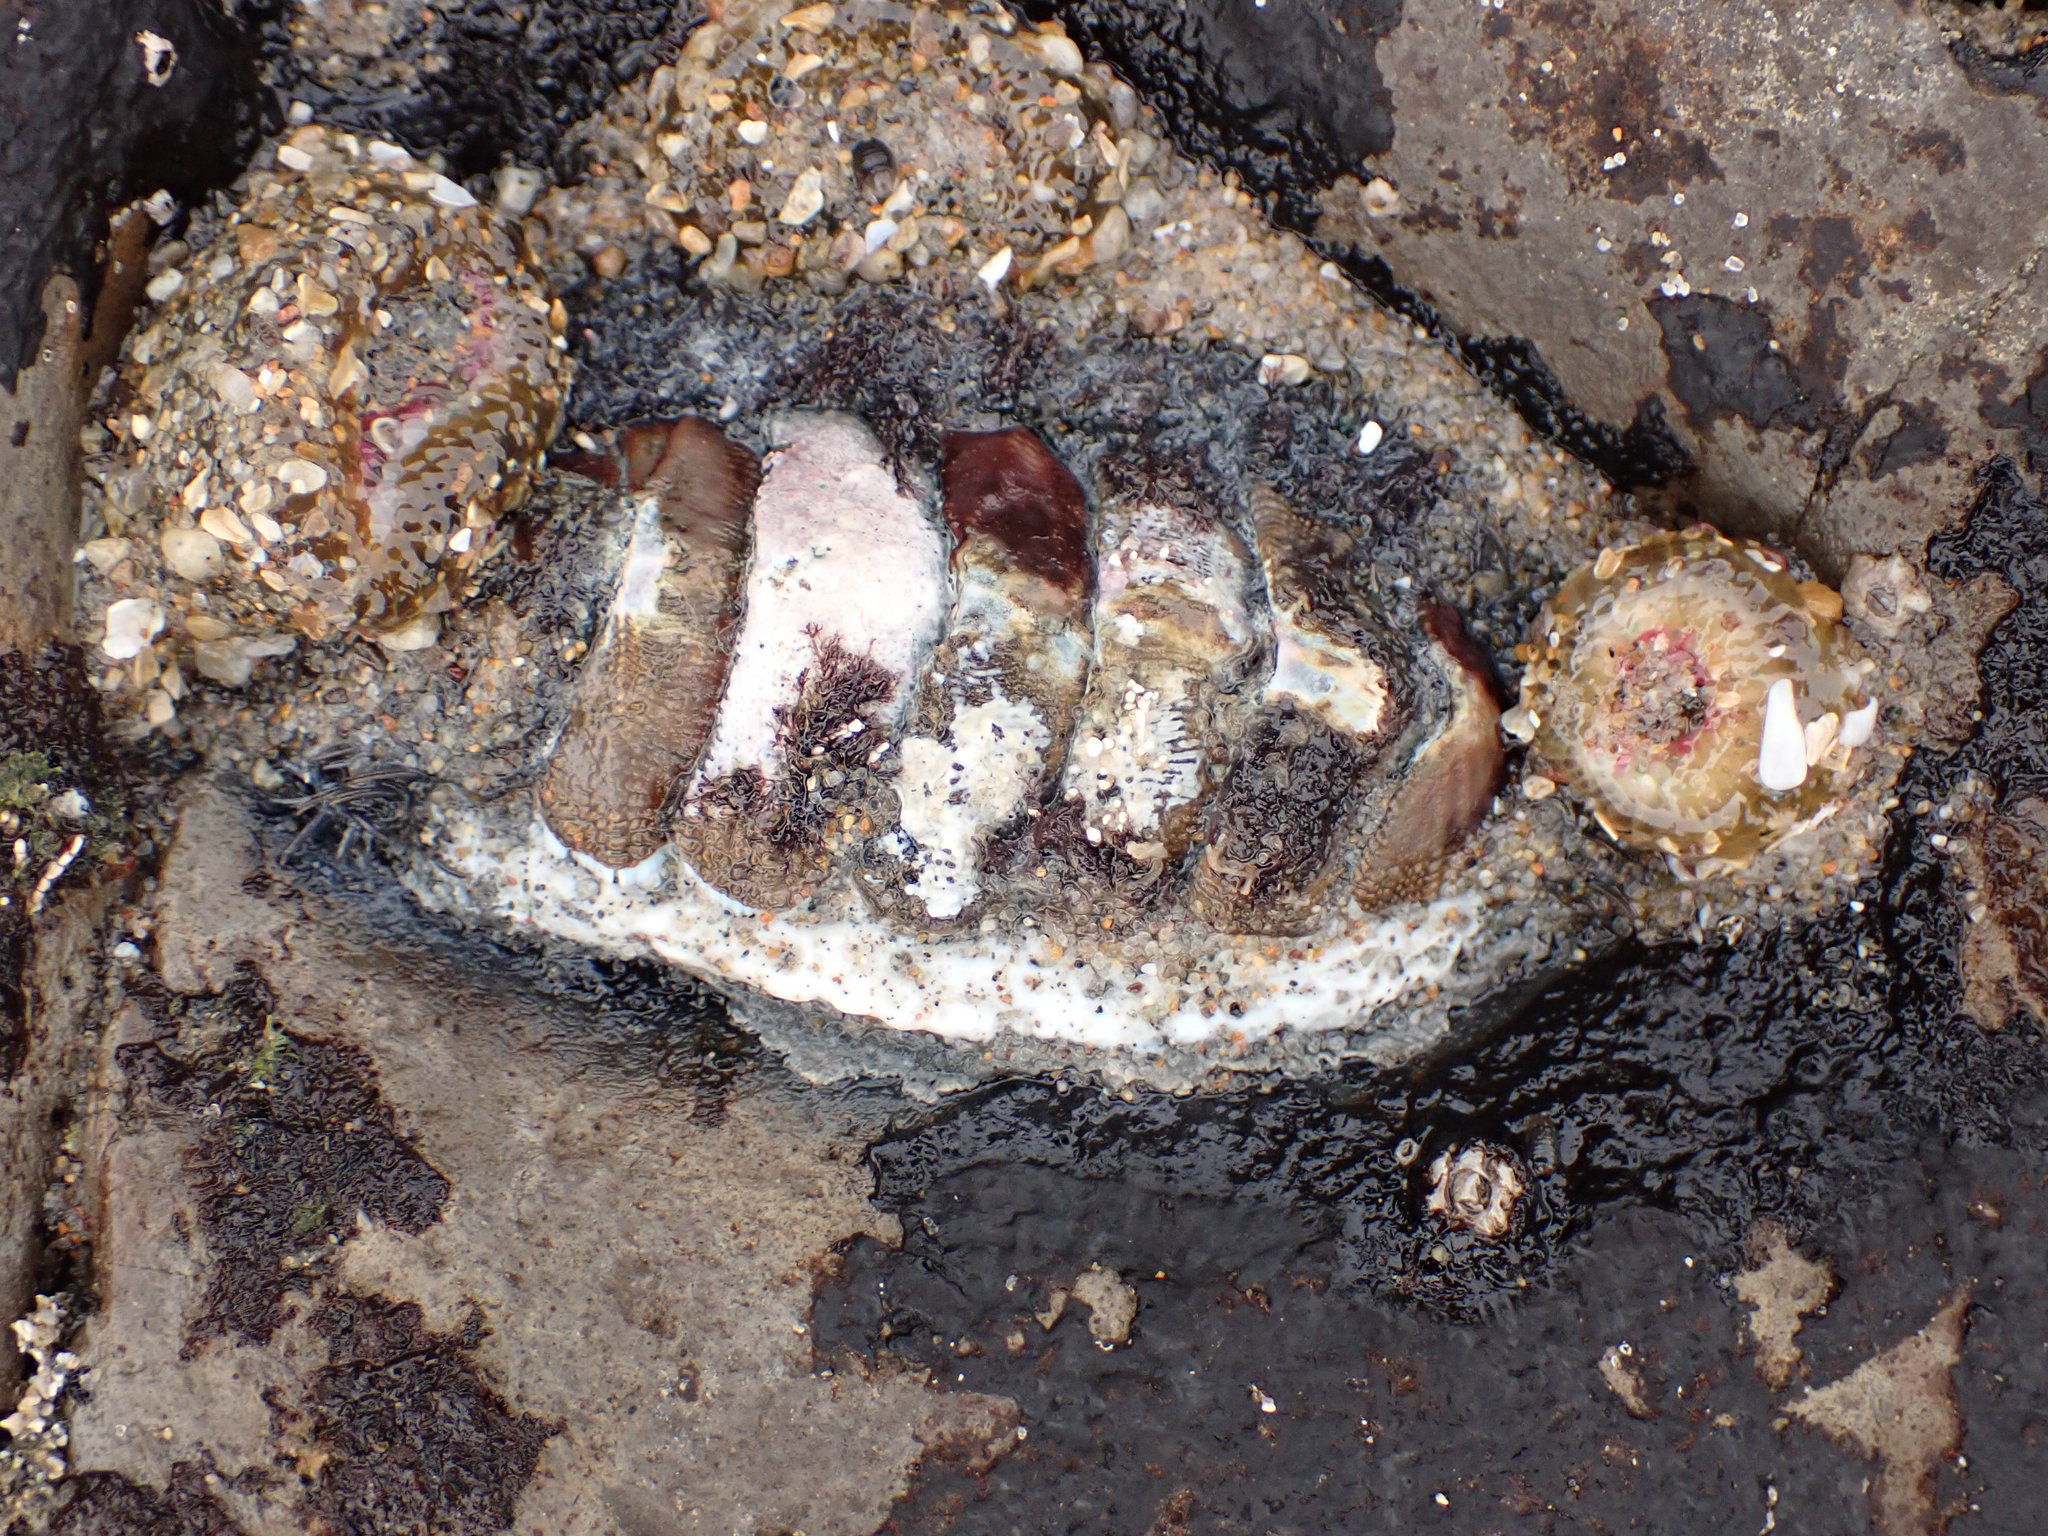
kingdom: Animalia
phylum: Mollusca
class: Polyplacophora
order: Chitonida
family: Mopaliidae
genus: Mopalia
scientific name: Mopalia muscosa
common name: Mossy chiton
